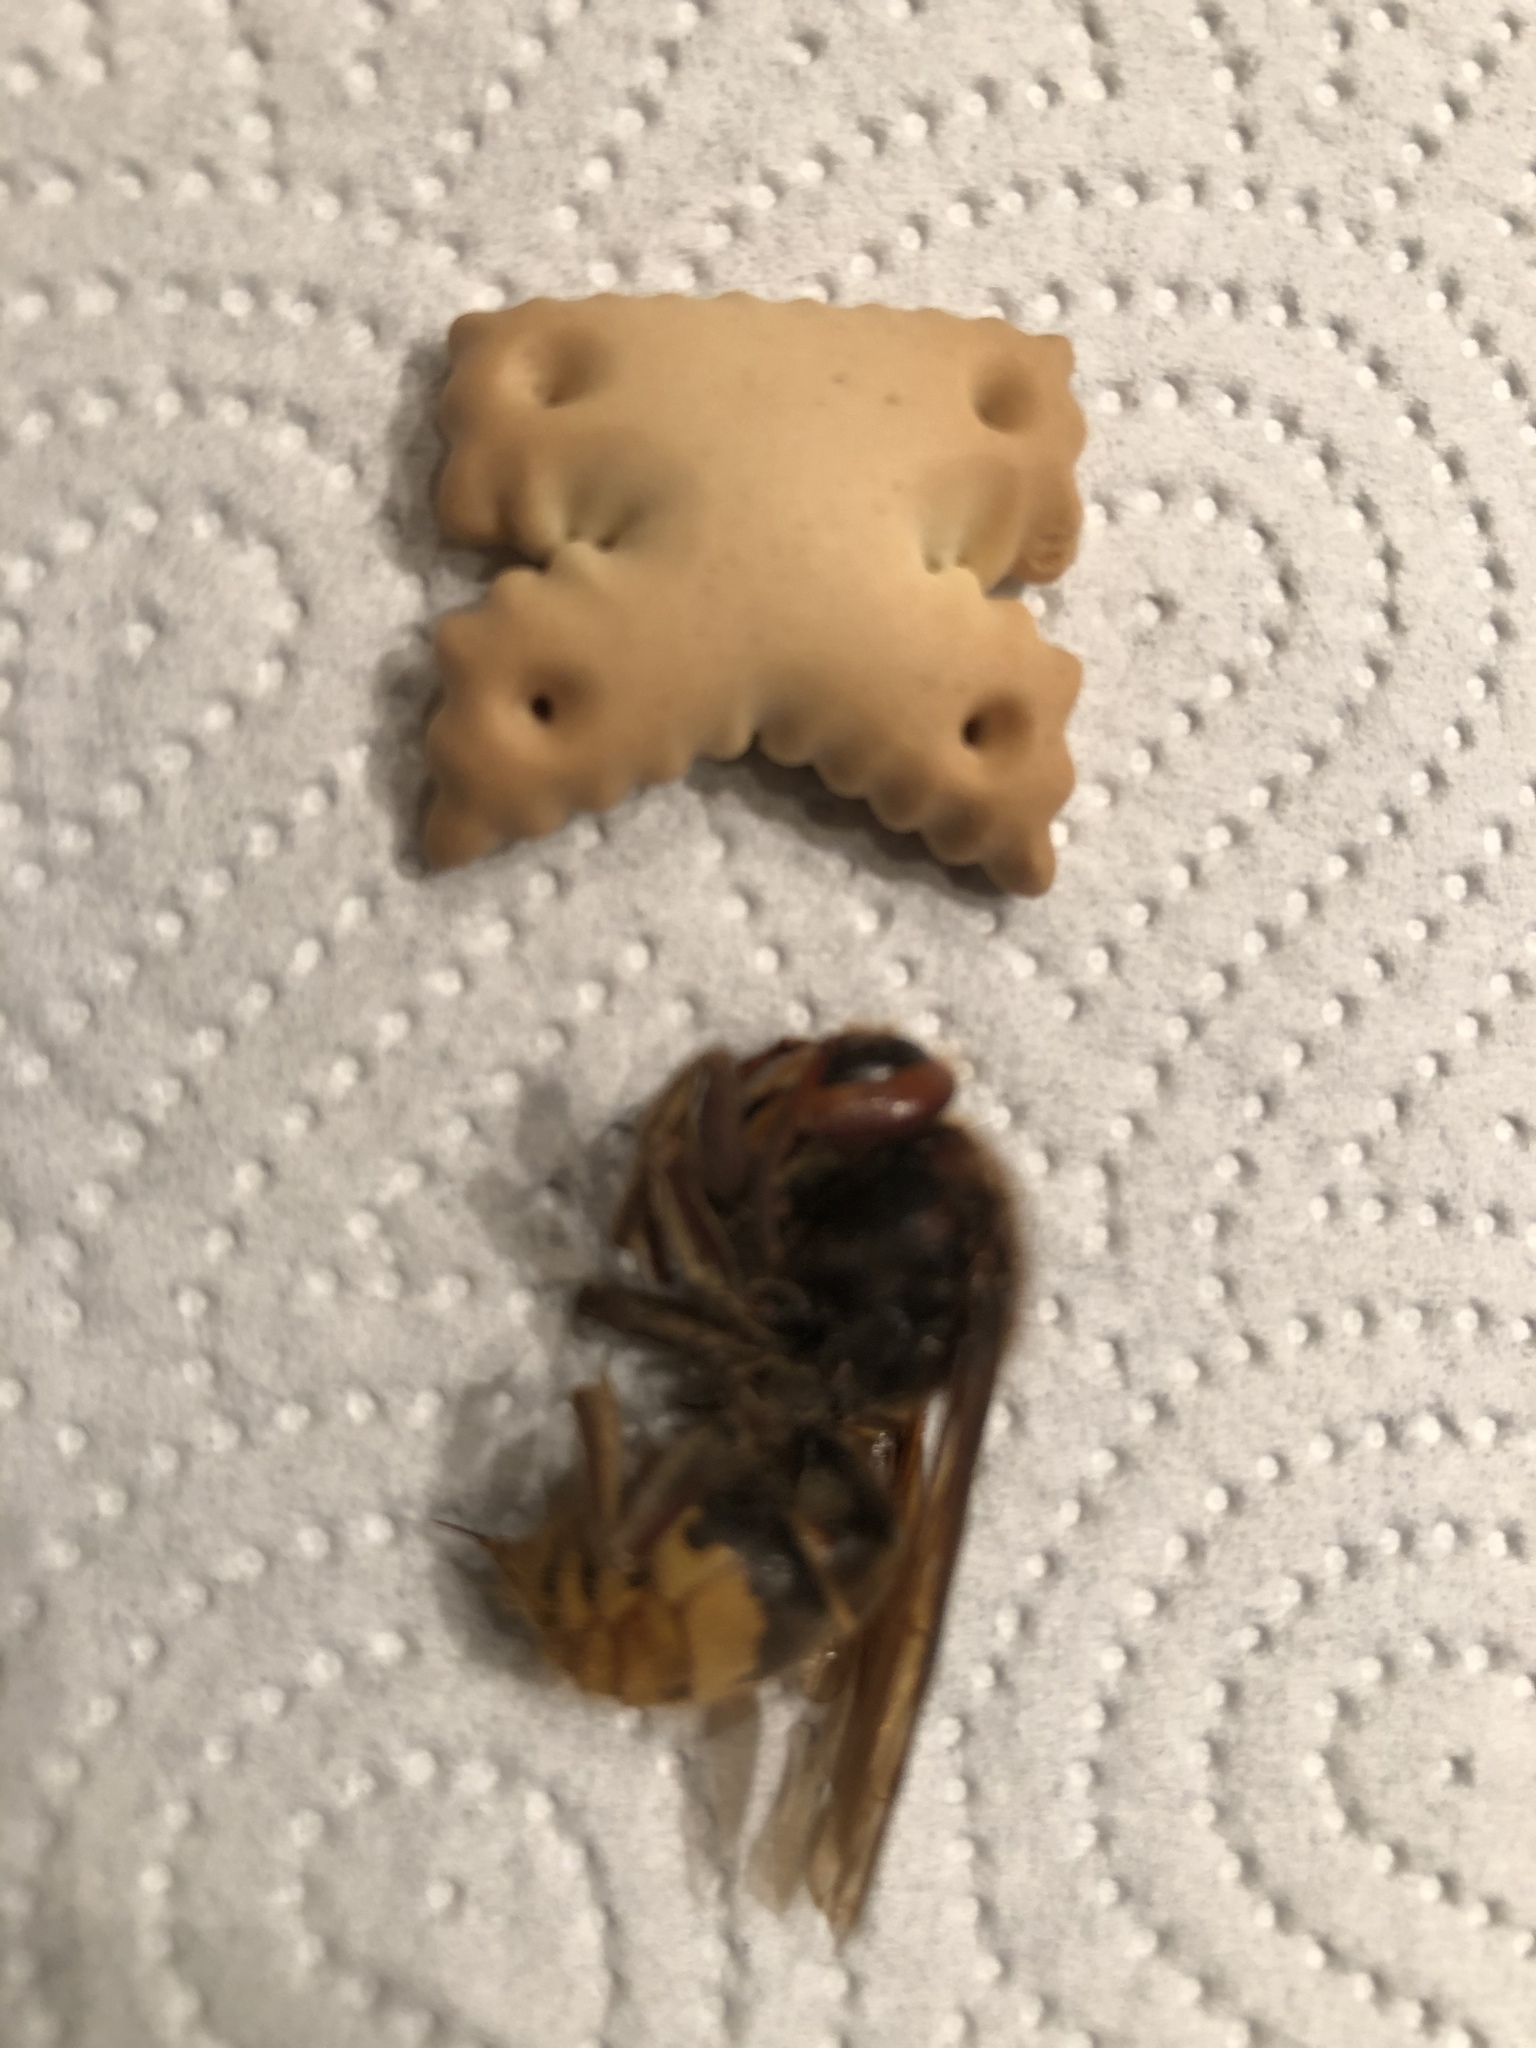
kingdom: Animalia
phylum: Arthropoda
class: Insecta
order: Hymenoptera
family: Vespidae
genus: Vespa
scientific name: Vespa crabro
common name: Hornet
